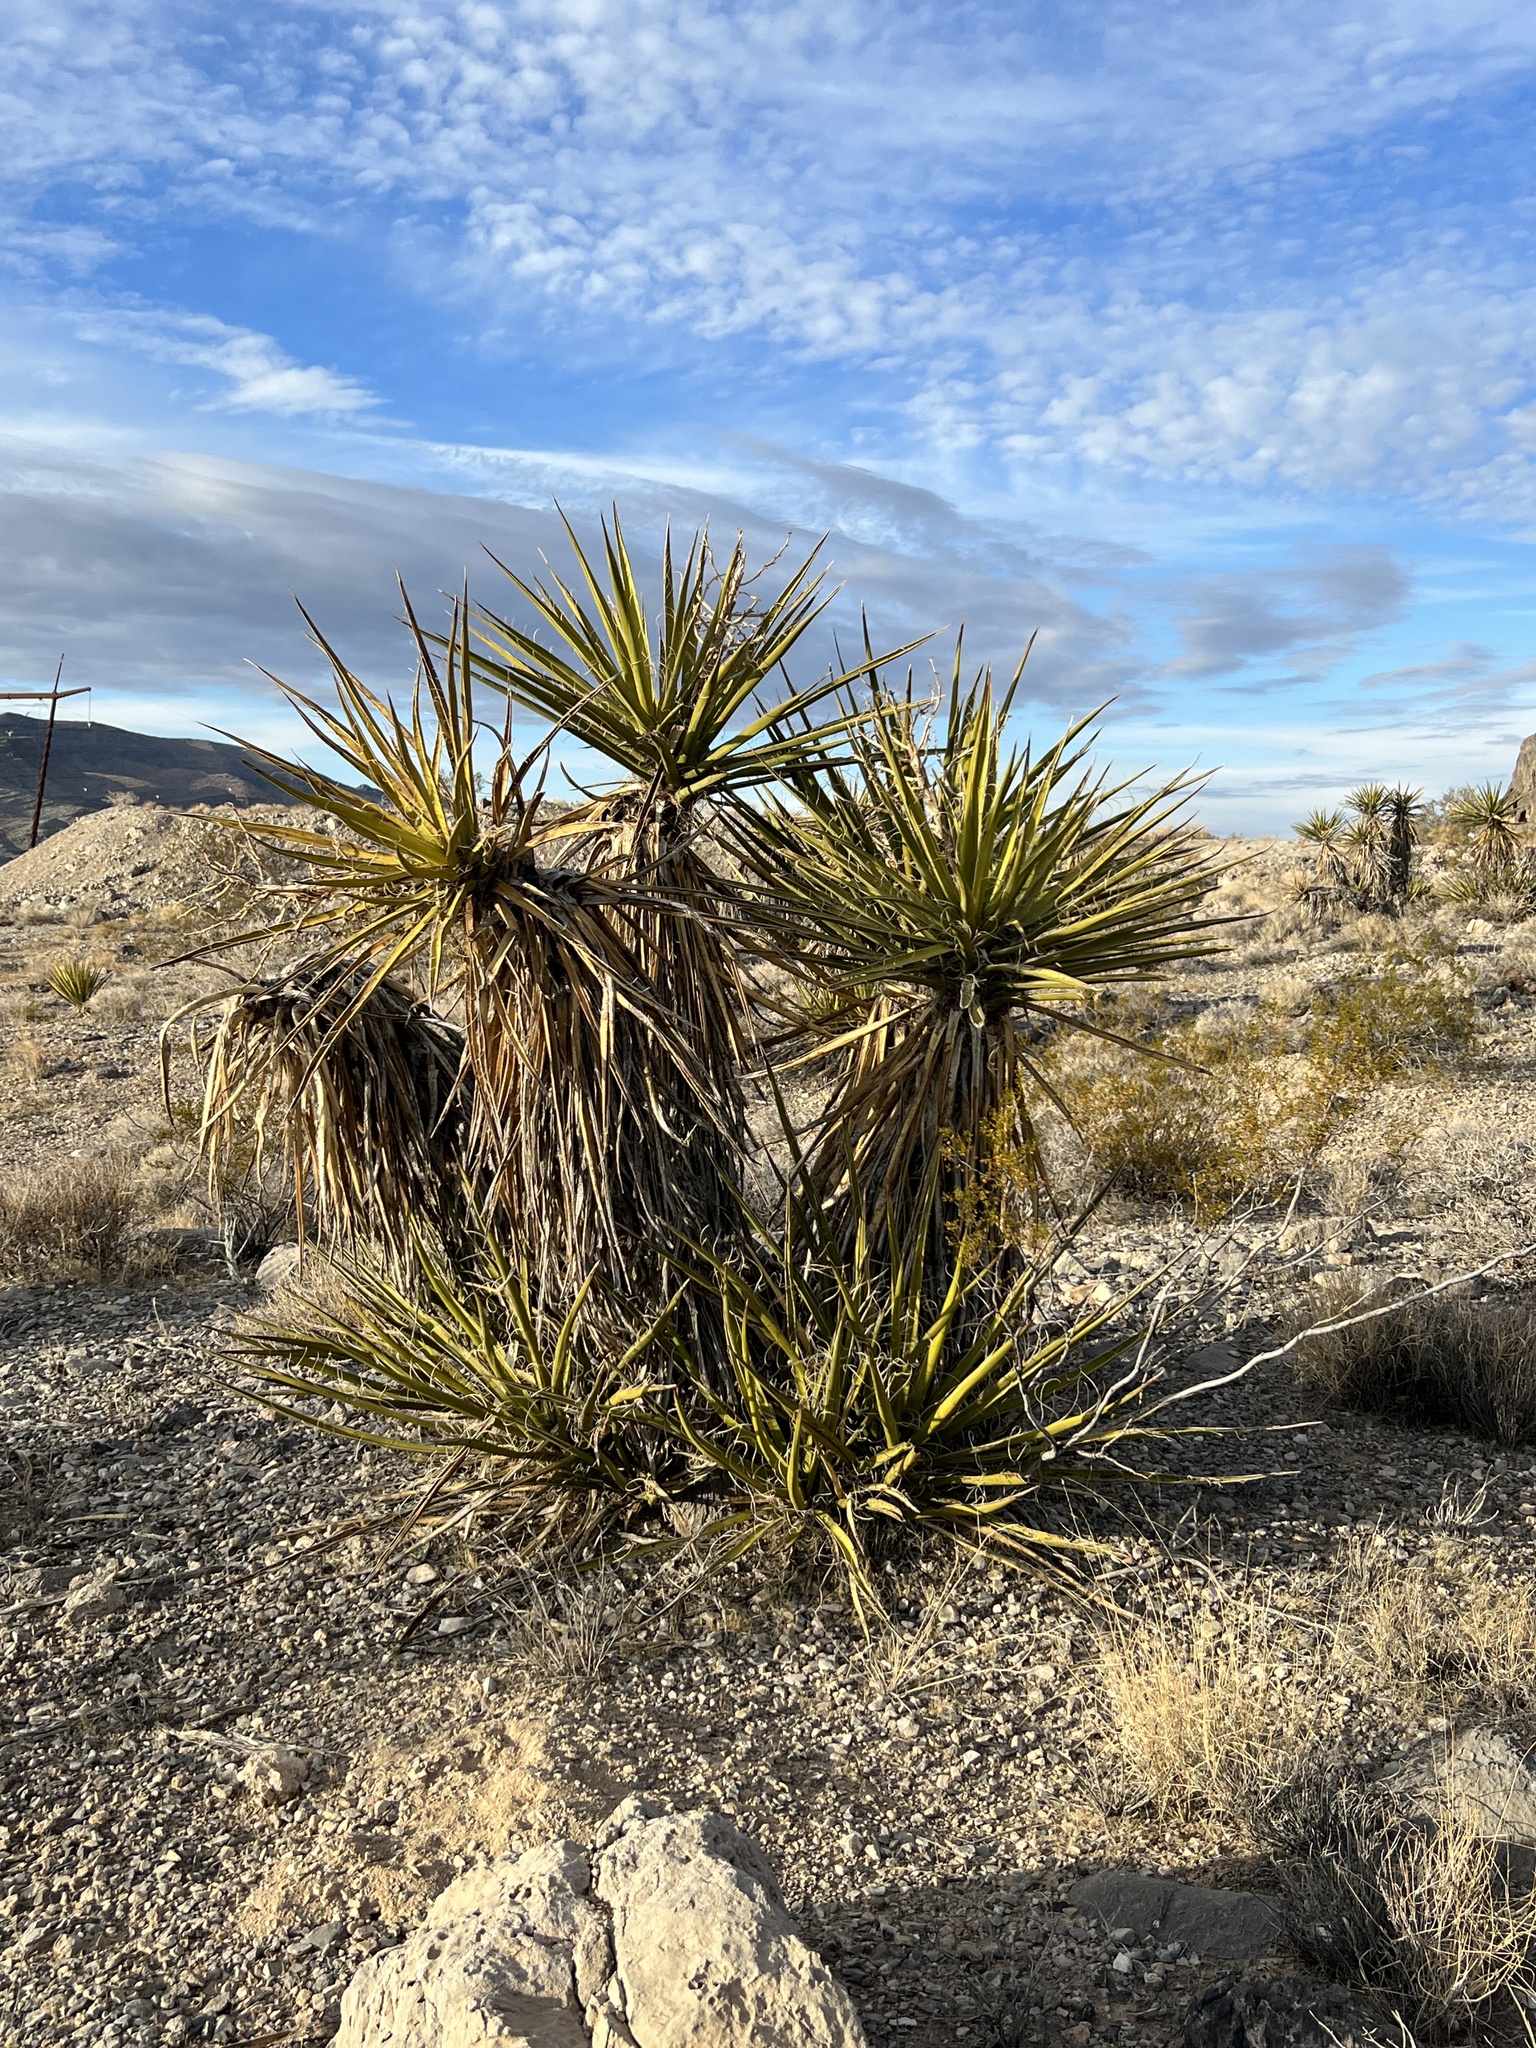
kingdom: Plantae
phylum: Tracheophyta
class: Liliopsida
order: Asparagales
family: Asparagaceae
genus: Yucca
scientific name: Yucca schidigera
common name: Mojave yucca
